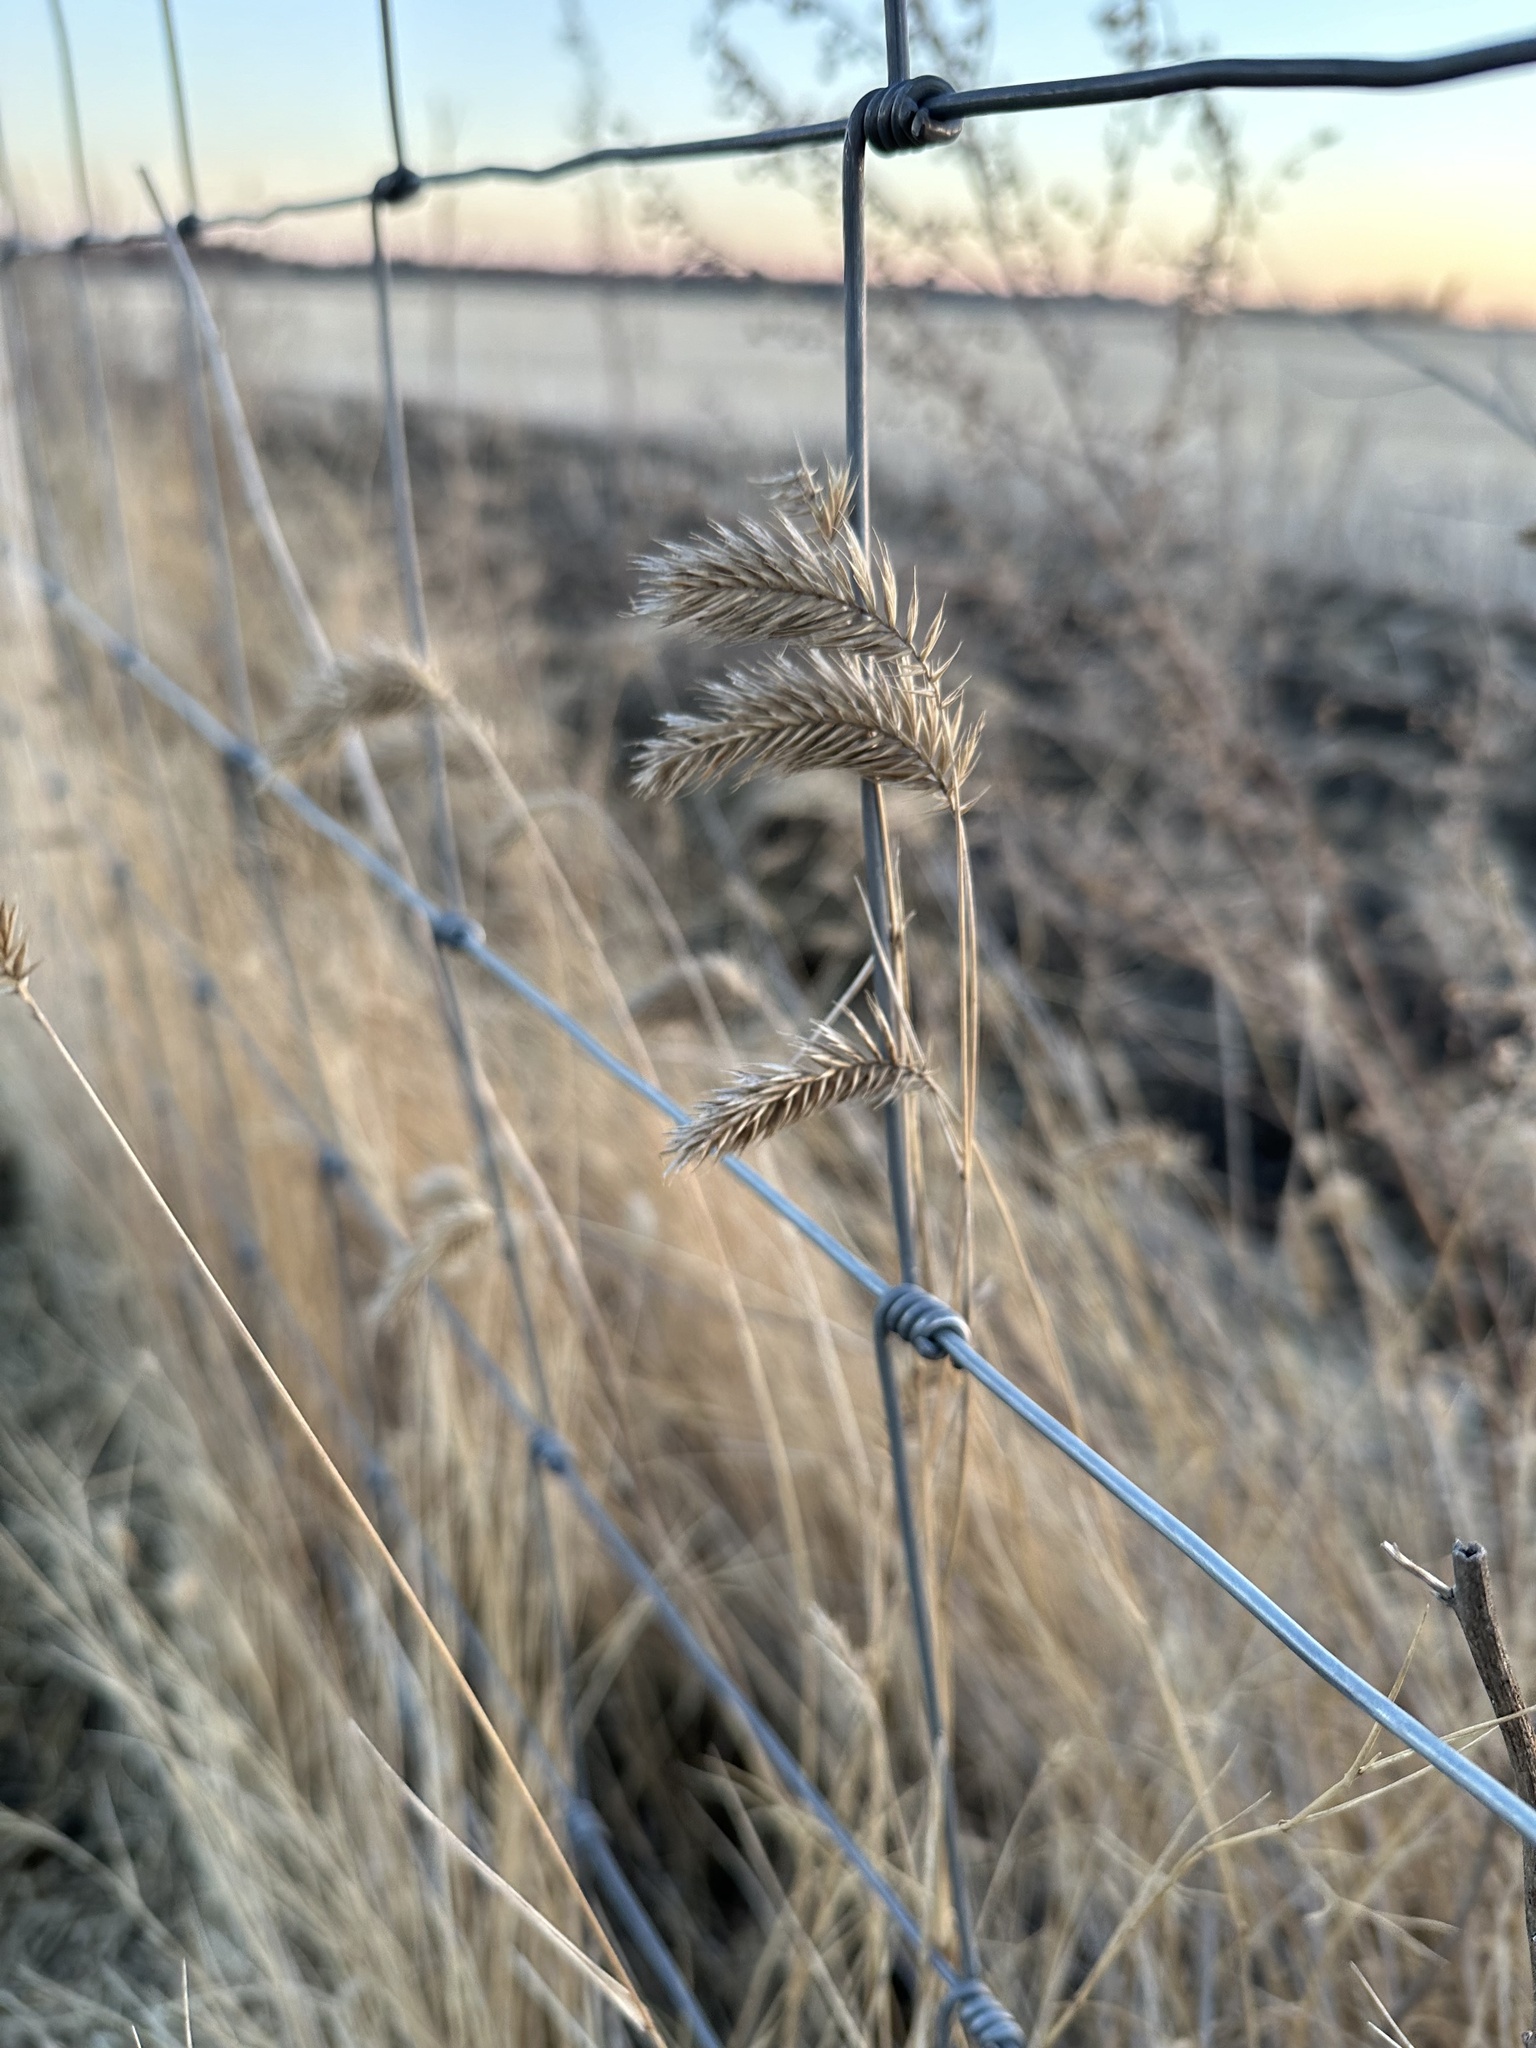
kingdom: Plantae
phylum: Tracheophyta
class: Liliopsida
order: Poales
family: Poaceae
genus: Agropyron
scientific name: Agropyron cristatum
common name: Crested wheatgrass
